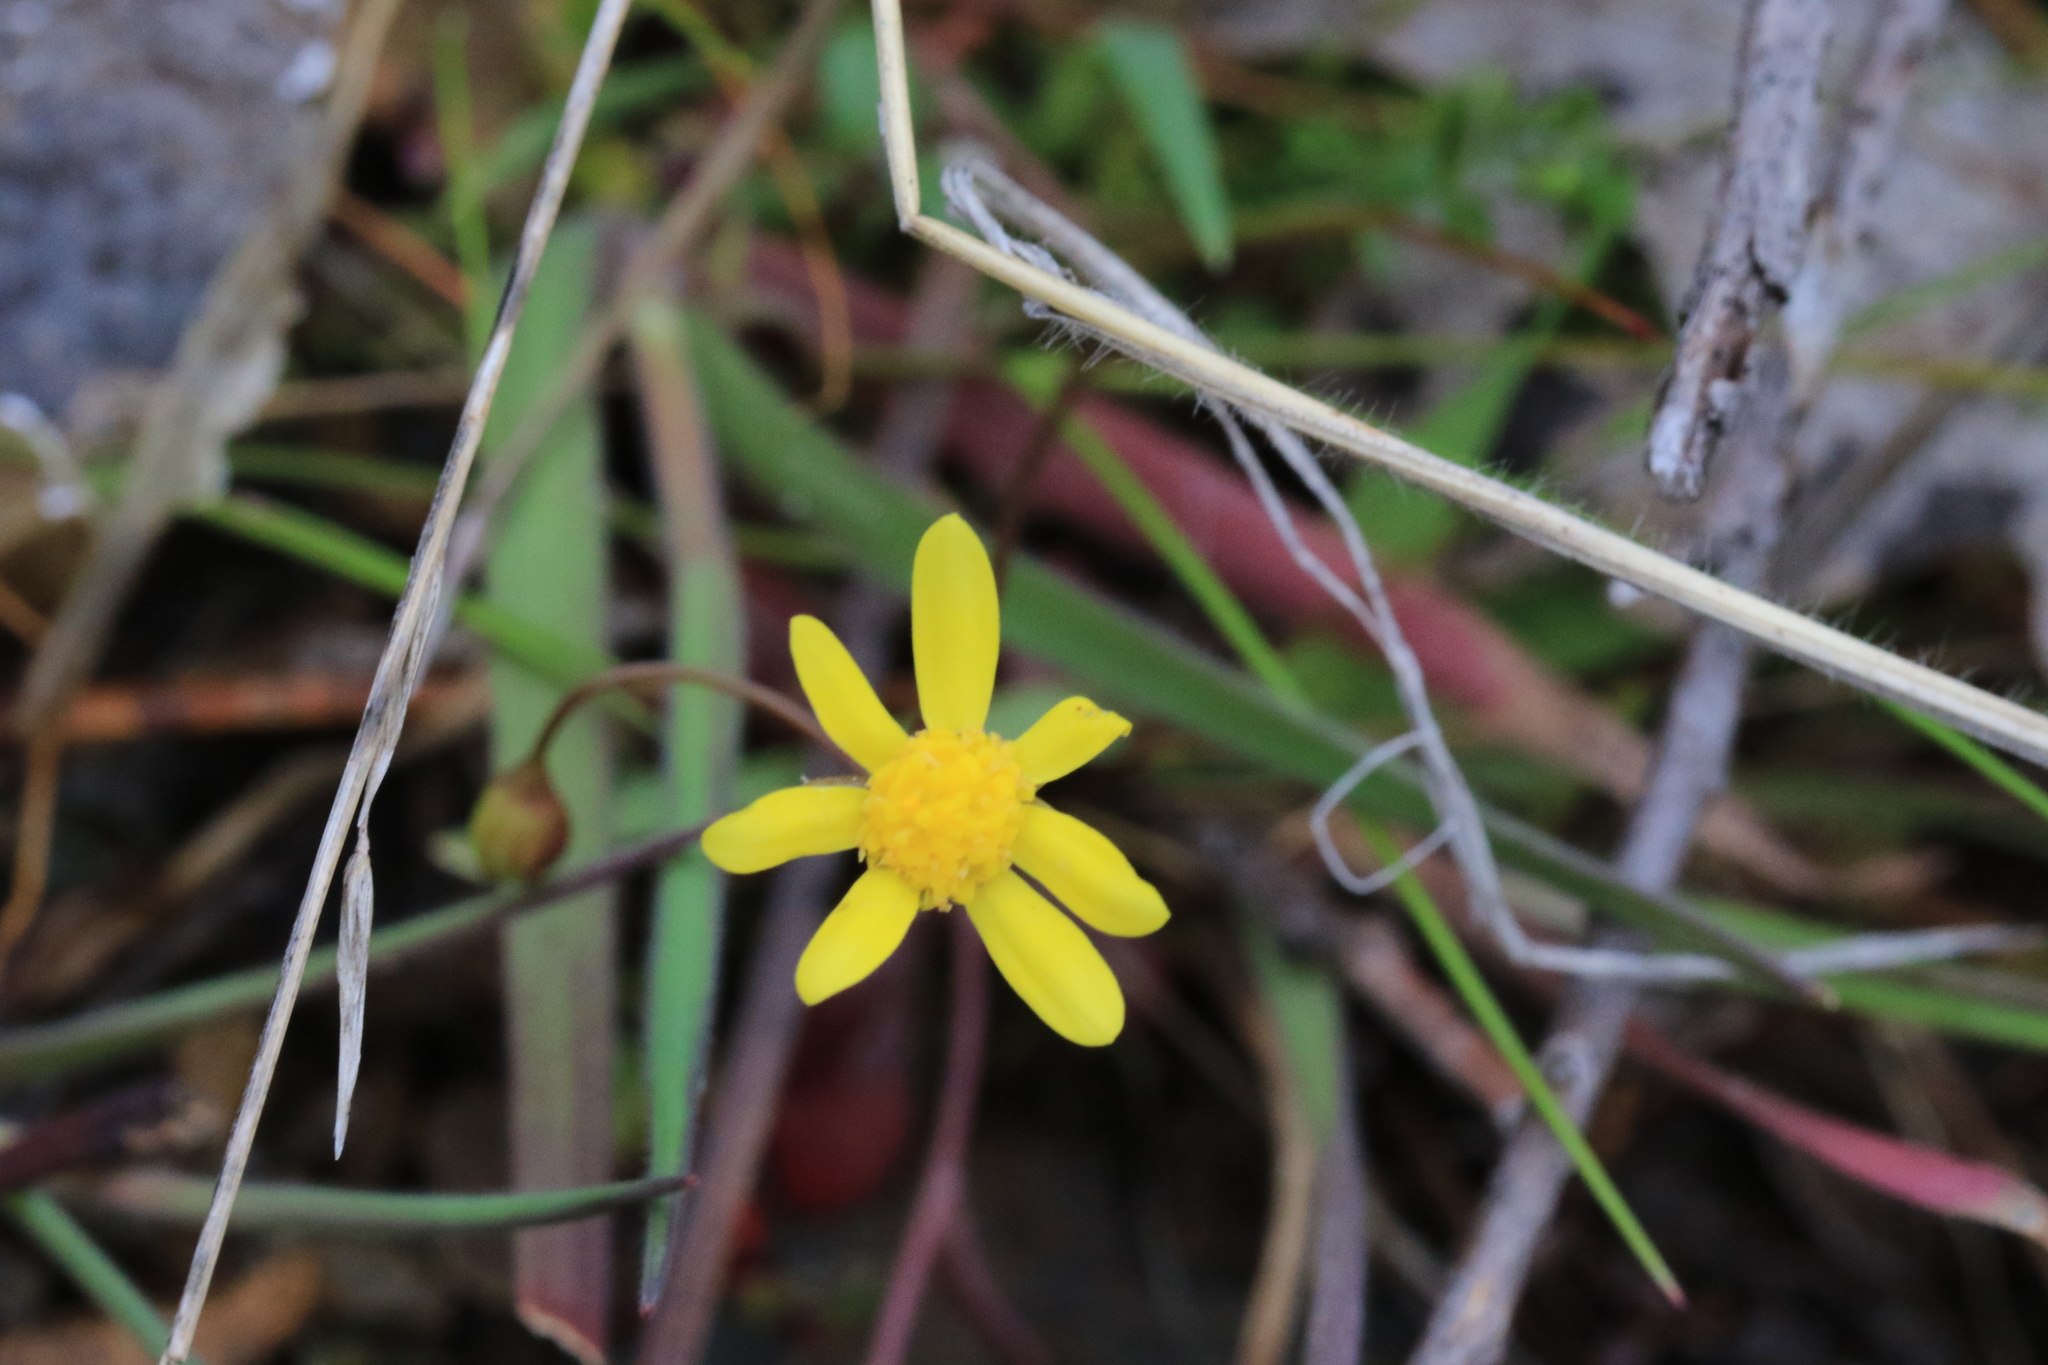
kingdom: Plantae
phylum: Tracheophyta
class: Magnoliopsida
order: Asterales
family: Asteraceae
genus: Crocidium
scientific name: Crocidium multicaule
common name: Common spring gold
